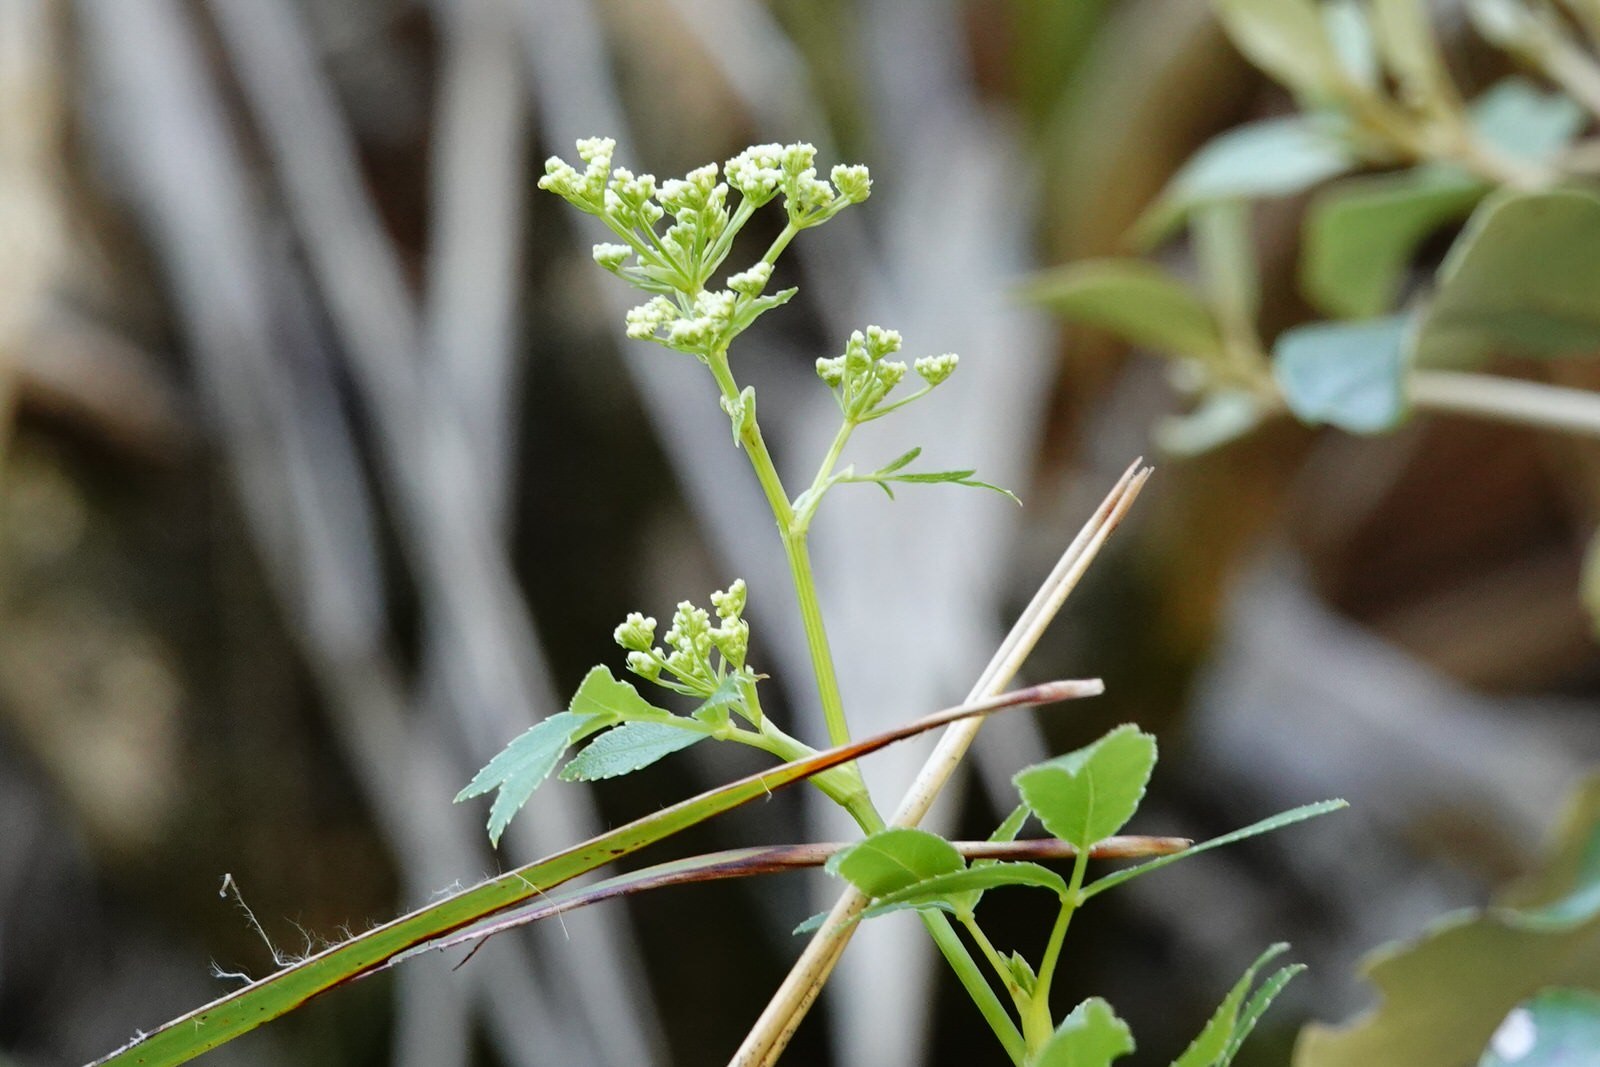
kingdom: Plantae
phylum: Tracheophyta
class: Magnoliopsida
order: Apiales
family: Apiaceae
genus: Scandia
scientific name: Scandia rosifolia
